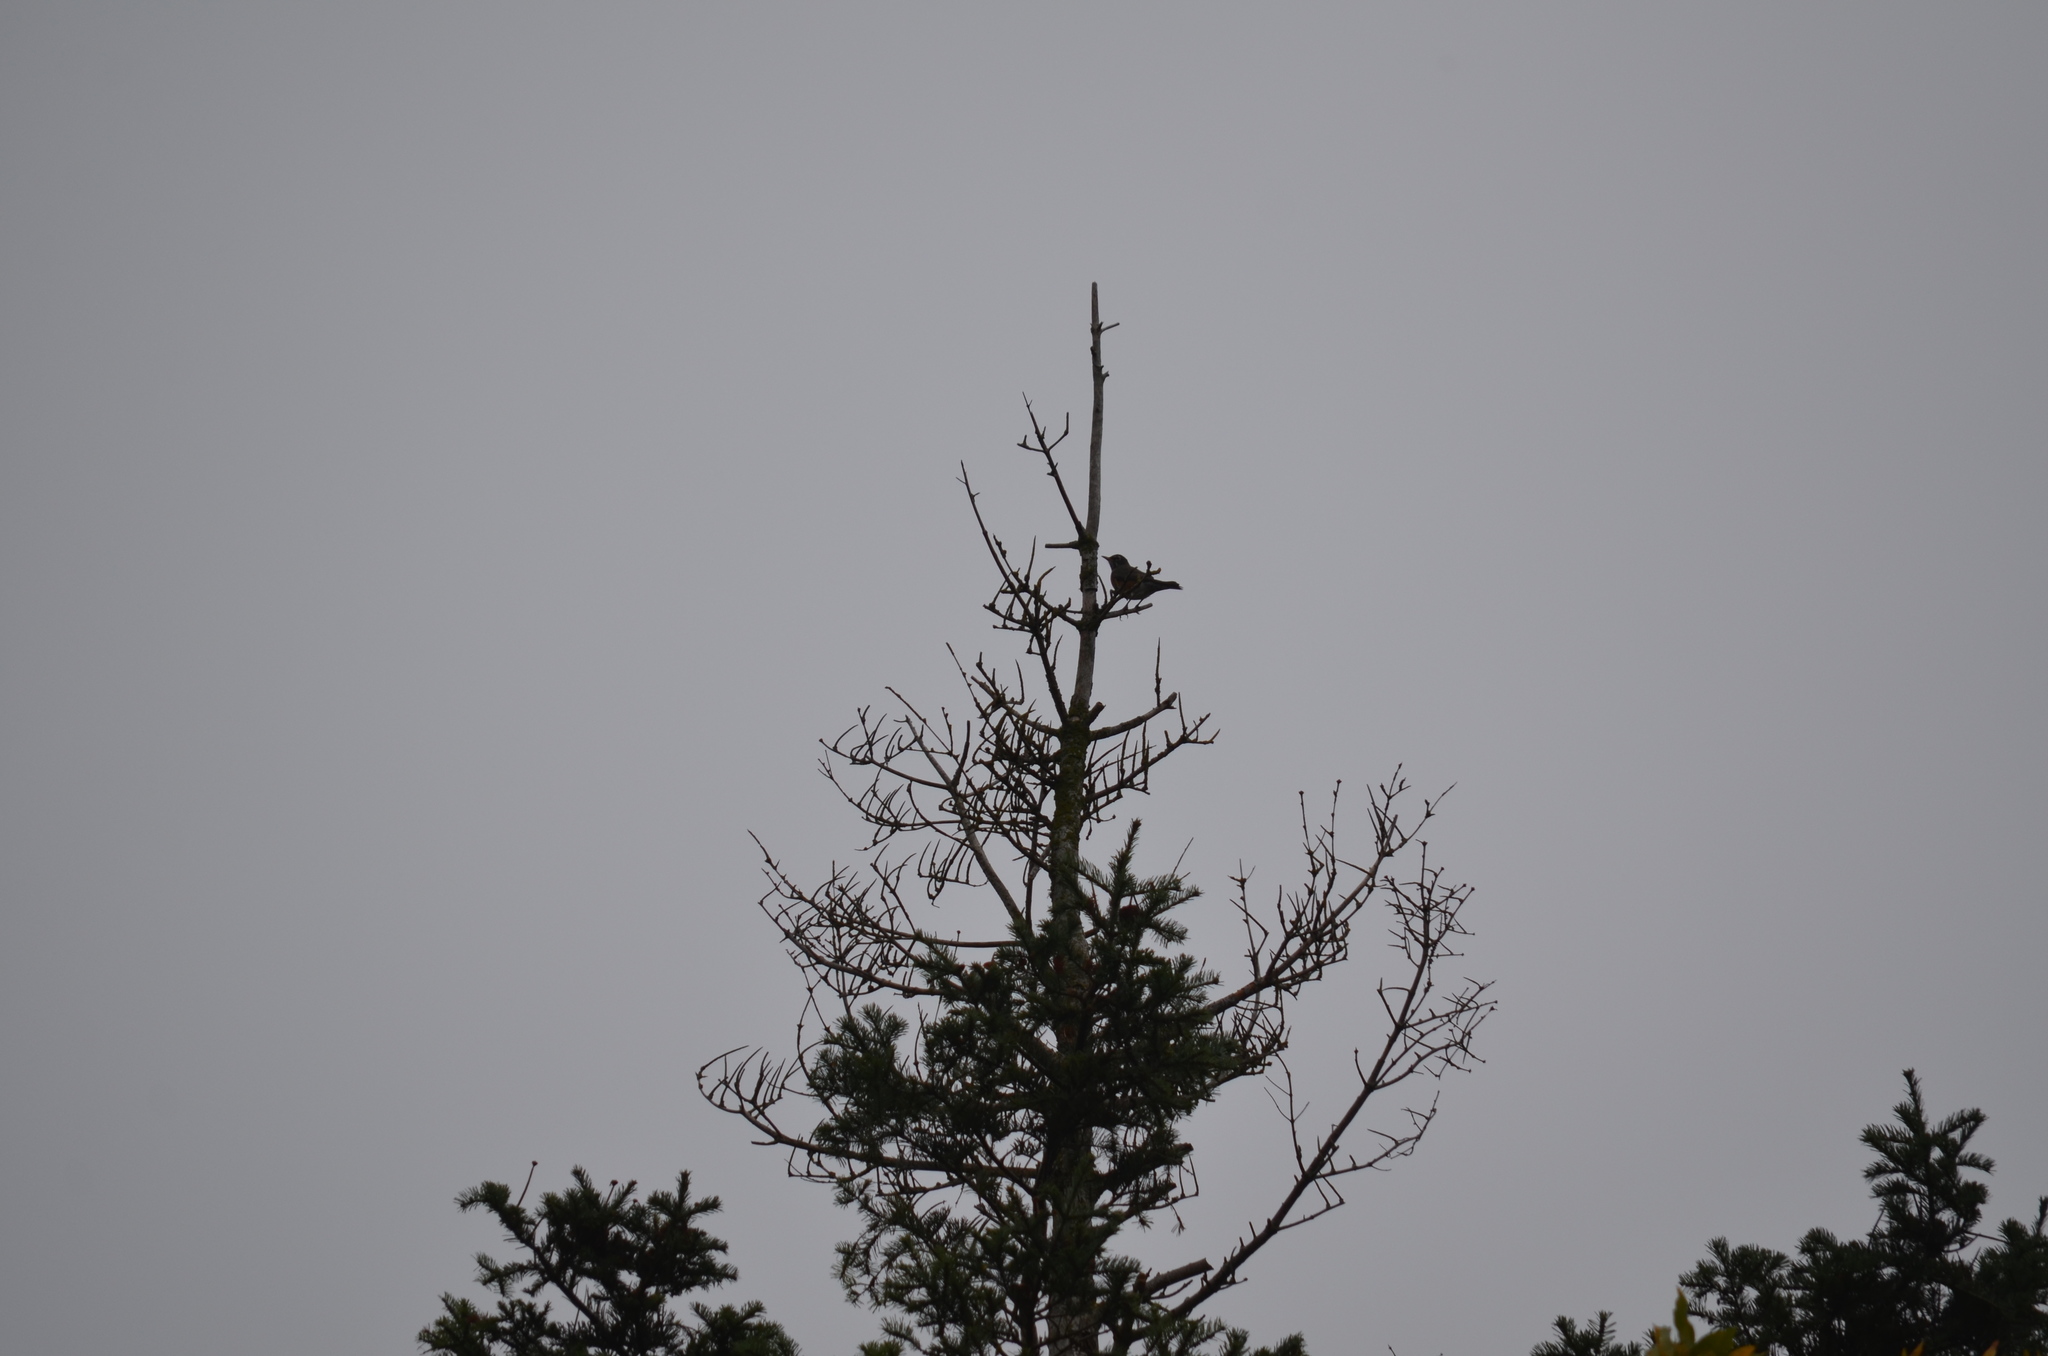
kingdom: Animalia
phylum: Chordata
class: Aves
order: Passeriformes
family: Turdidae
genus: Turdus
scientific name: Turdus migratorius
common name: American robin
